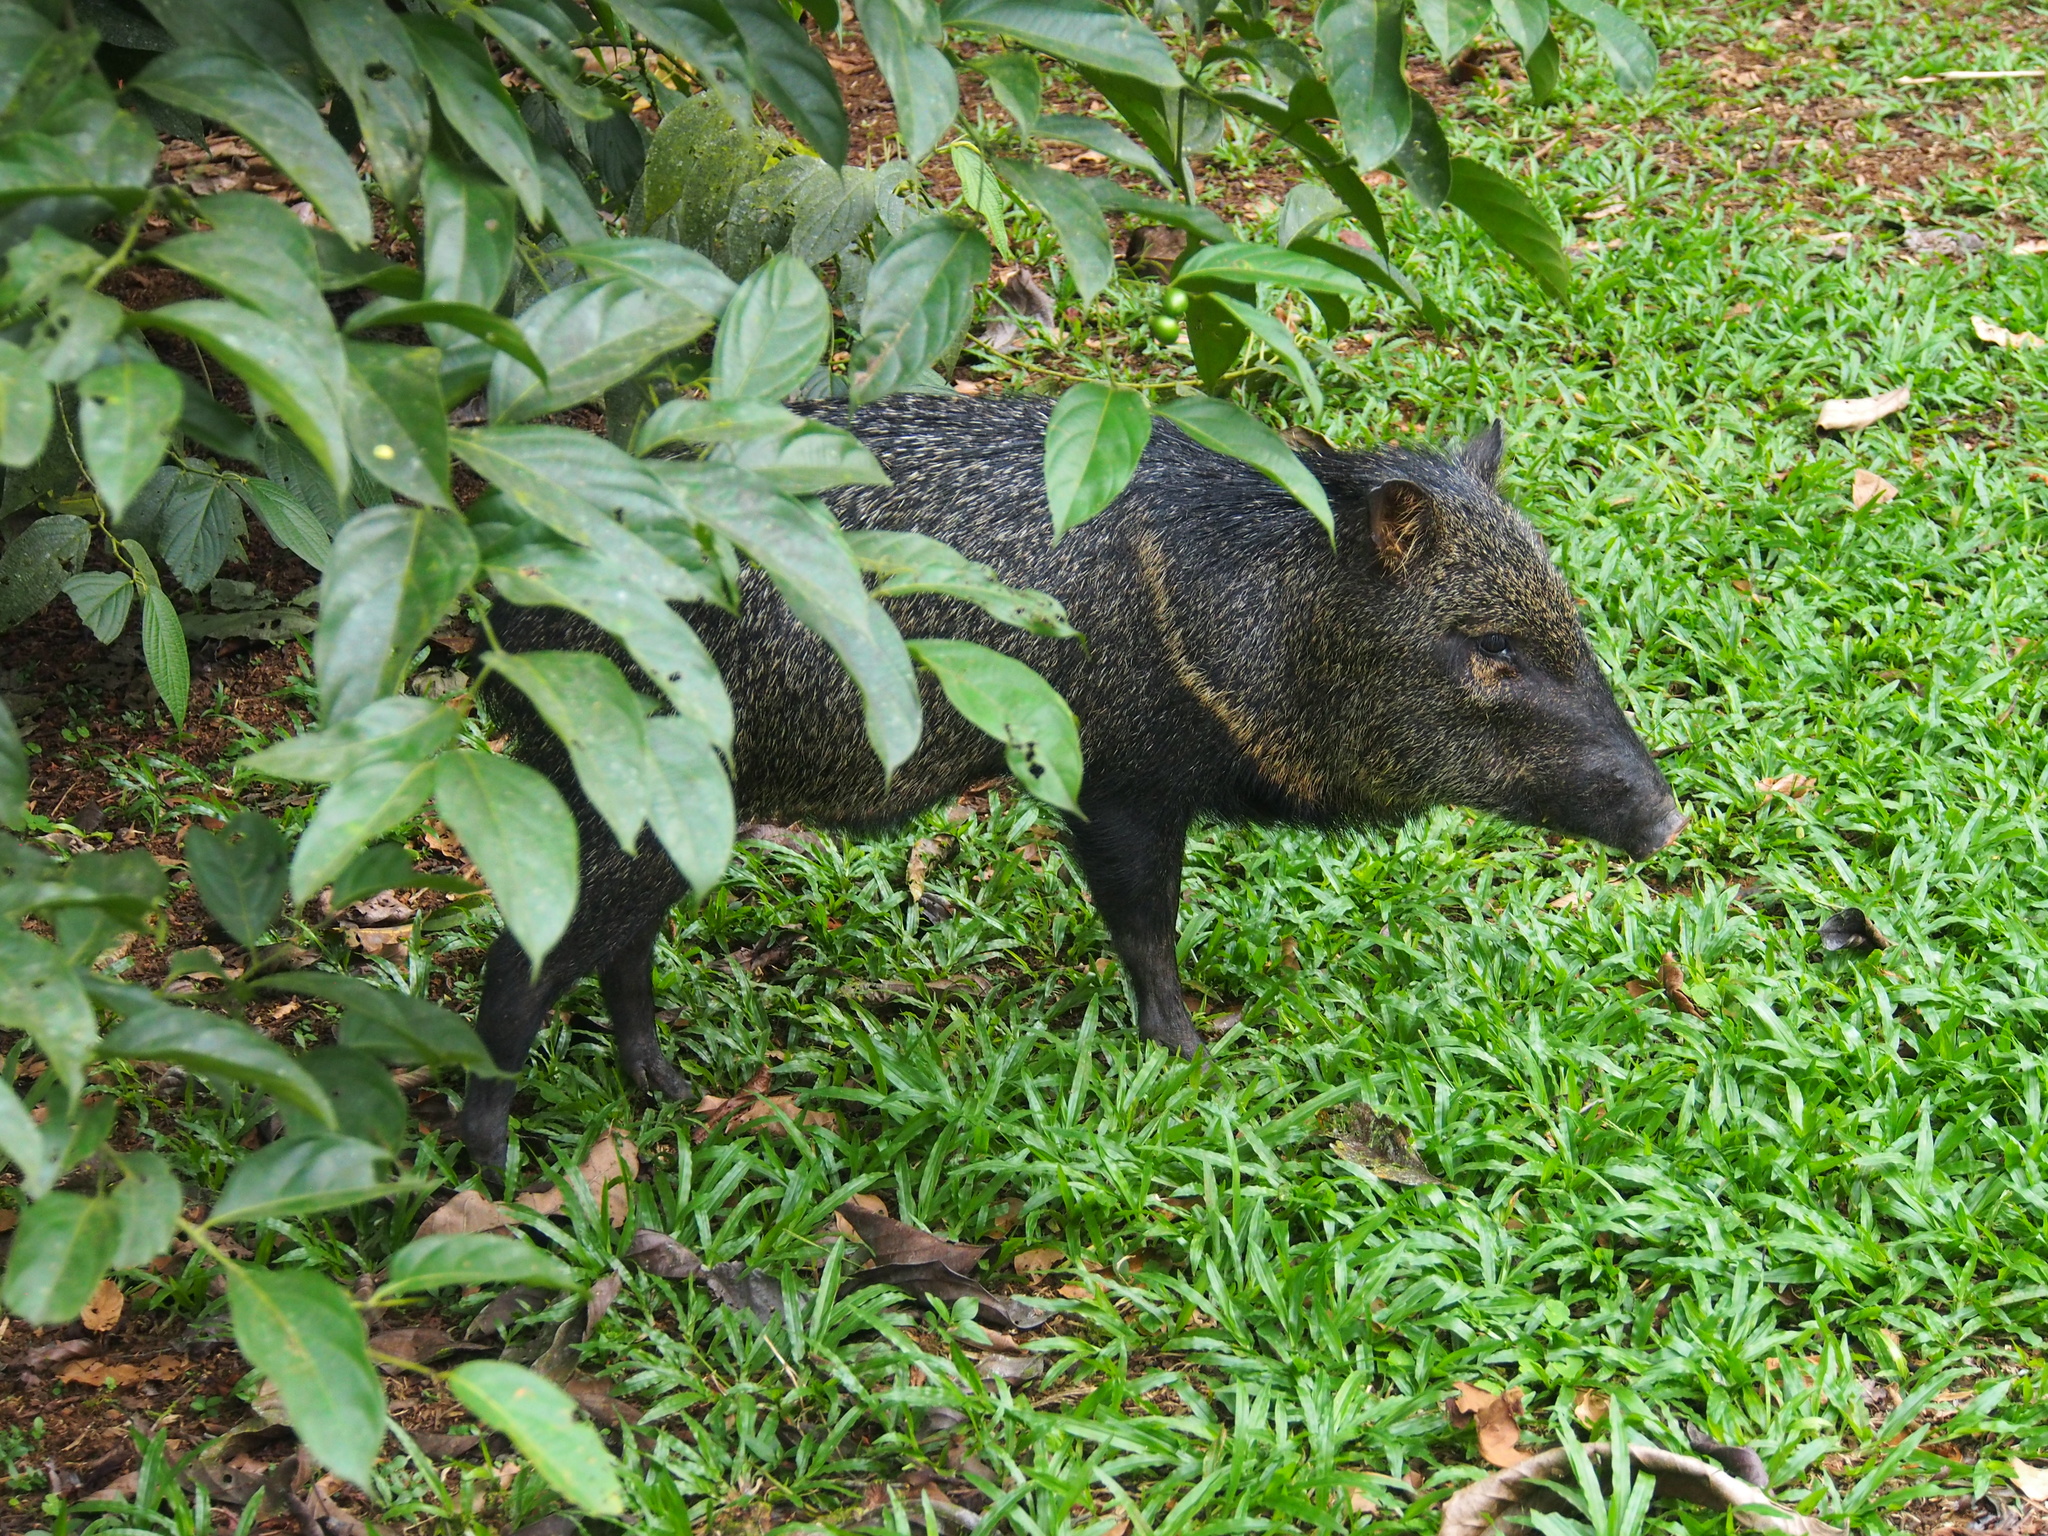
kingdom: Animalia
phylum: Chordata
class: Mammalia
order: Artiodactyla
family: Tayassuidae
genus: Pecari
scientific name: Pecari tajacu
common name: Collared peccary
